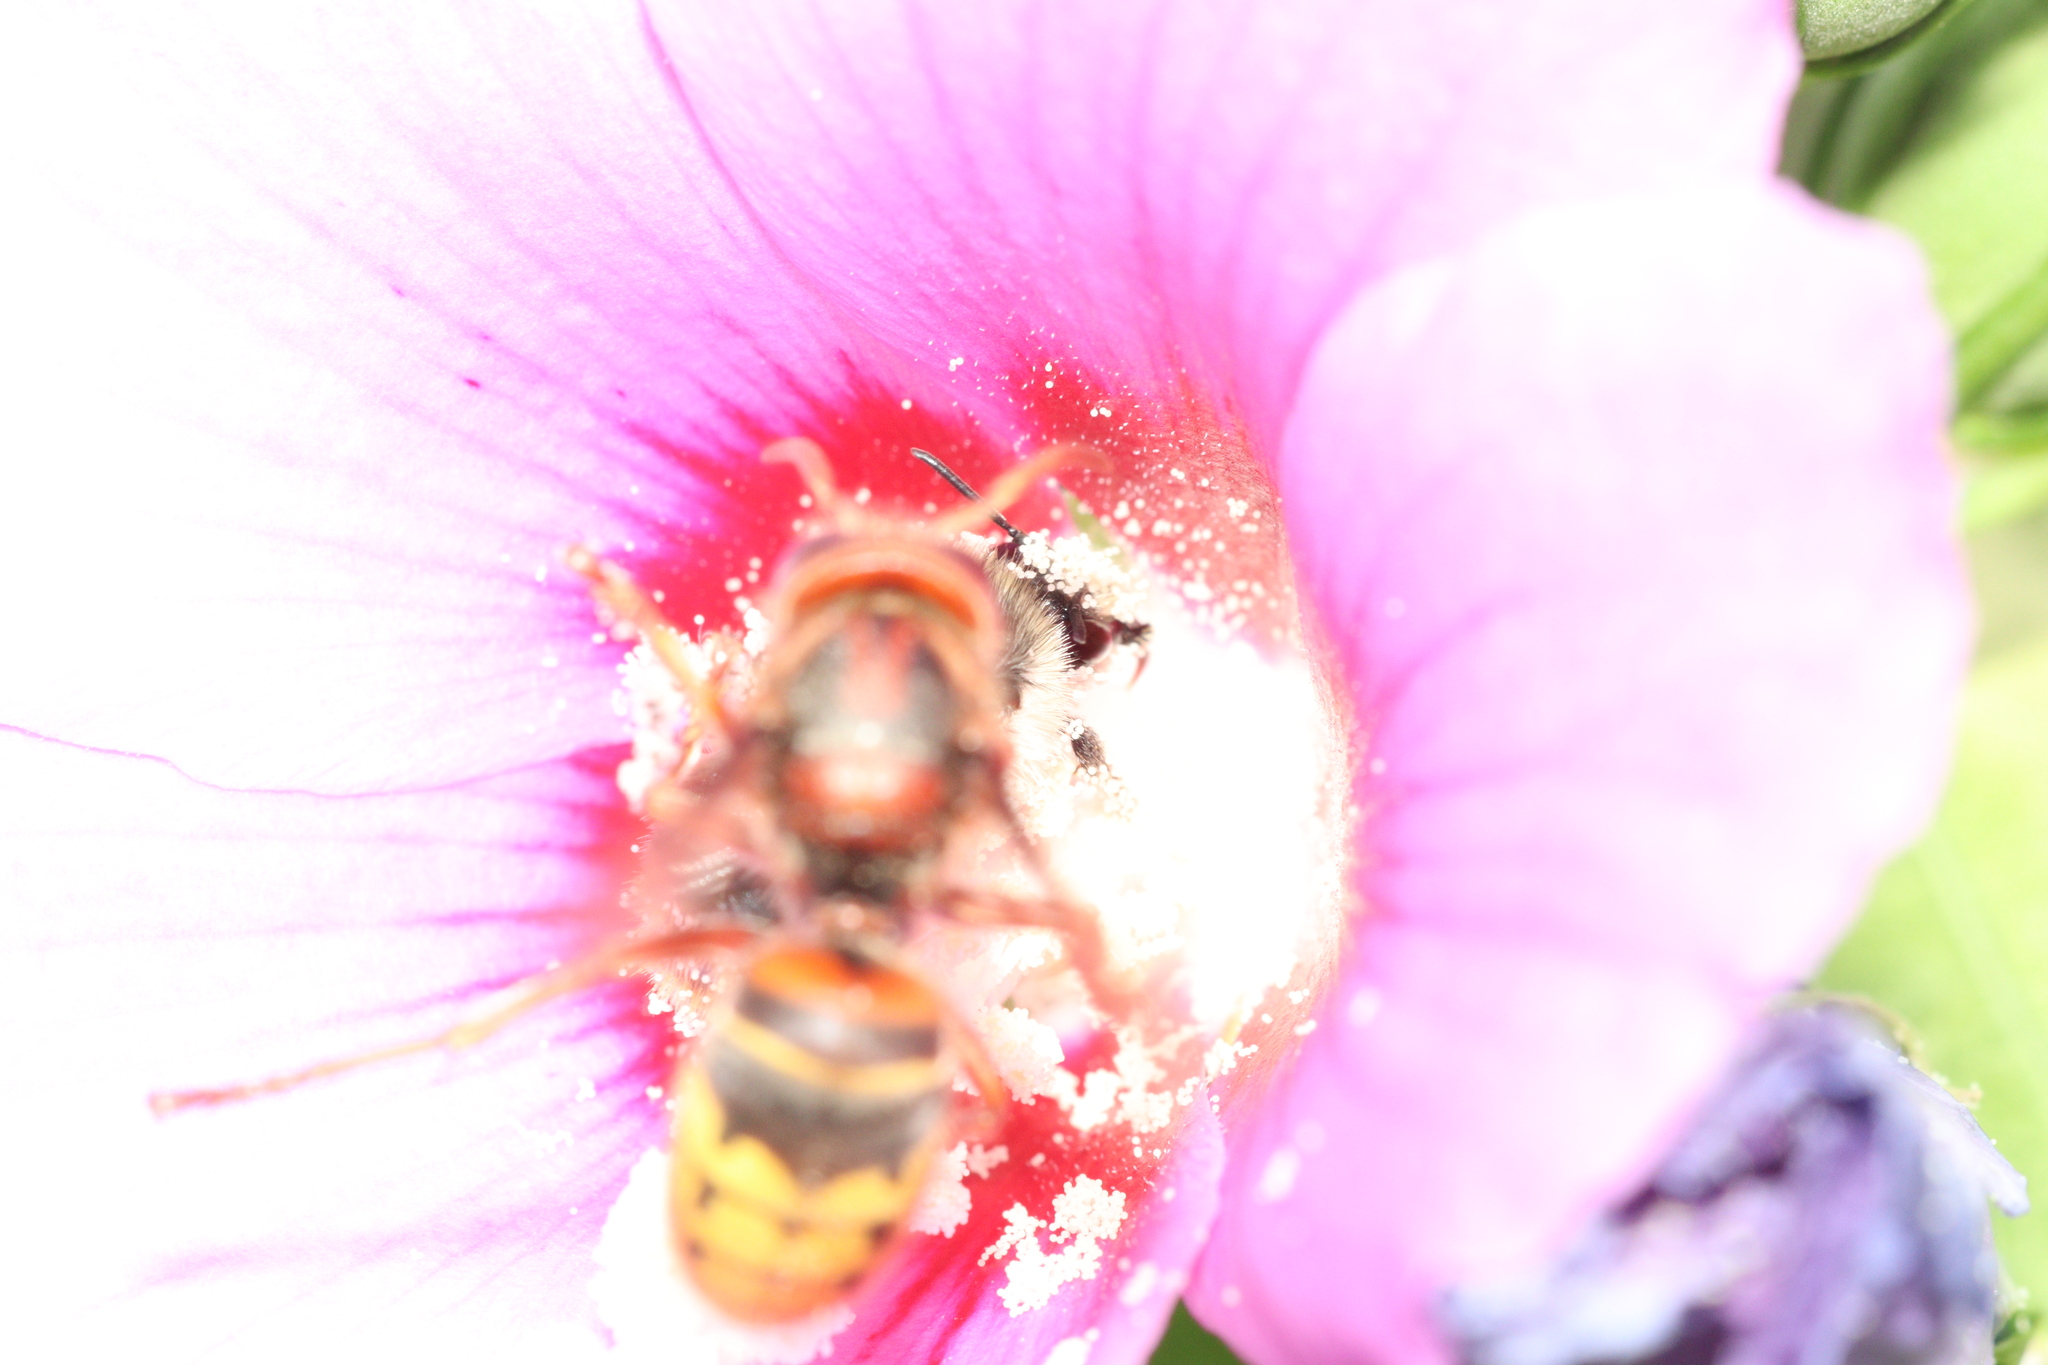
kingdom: Animalia
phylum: Arthropoda
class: Insecta
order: Hymenoptera
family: Vespidae
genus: Vespa
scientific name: Vespa crabro
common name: Hornet
